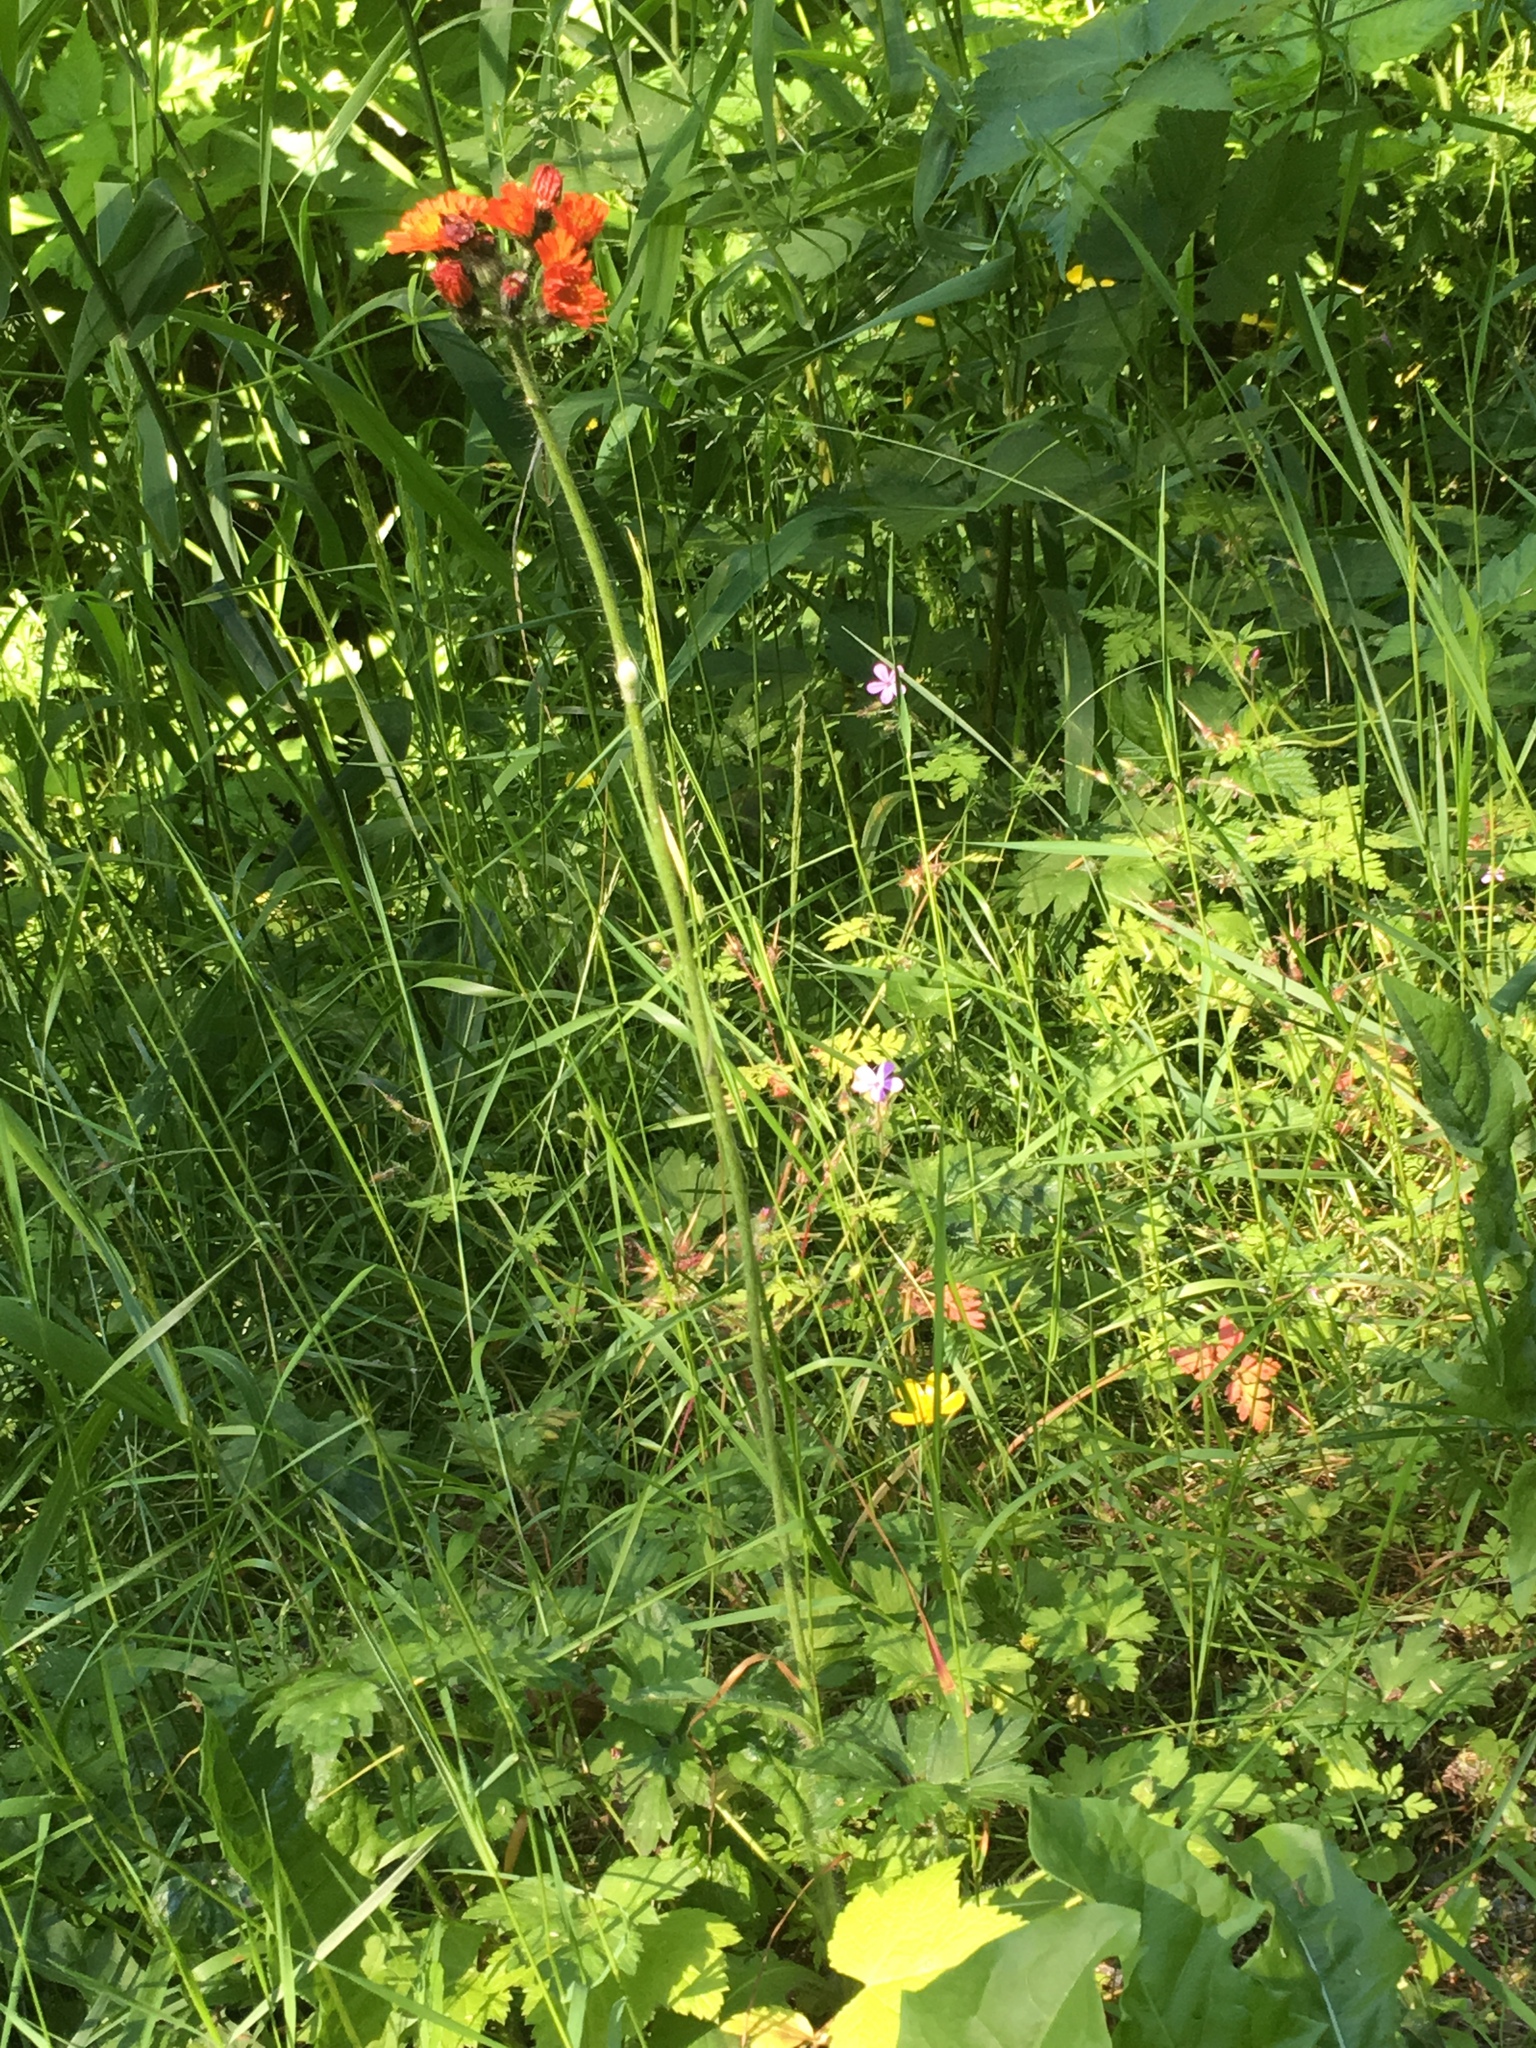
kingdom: Plantae
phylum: Tracheophyta
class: Magnoliopsida
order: Asterales
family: Asteraceae
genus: Pilosella
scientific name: Pilosella aurantiaca
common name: Fox-and-cubs
